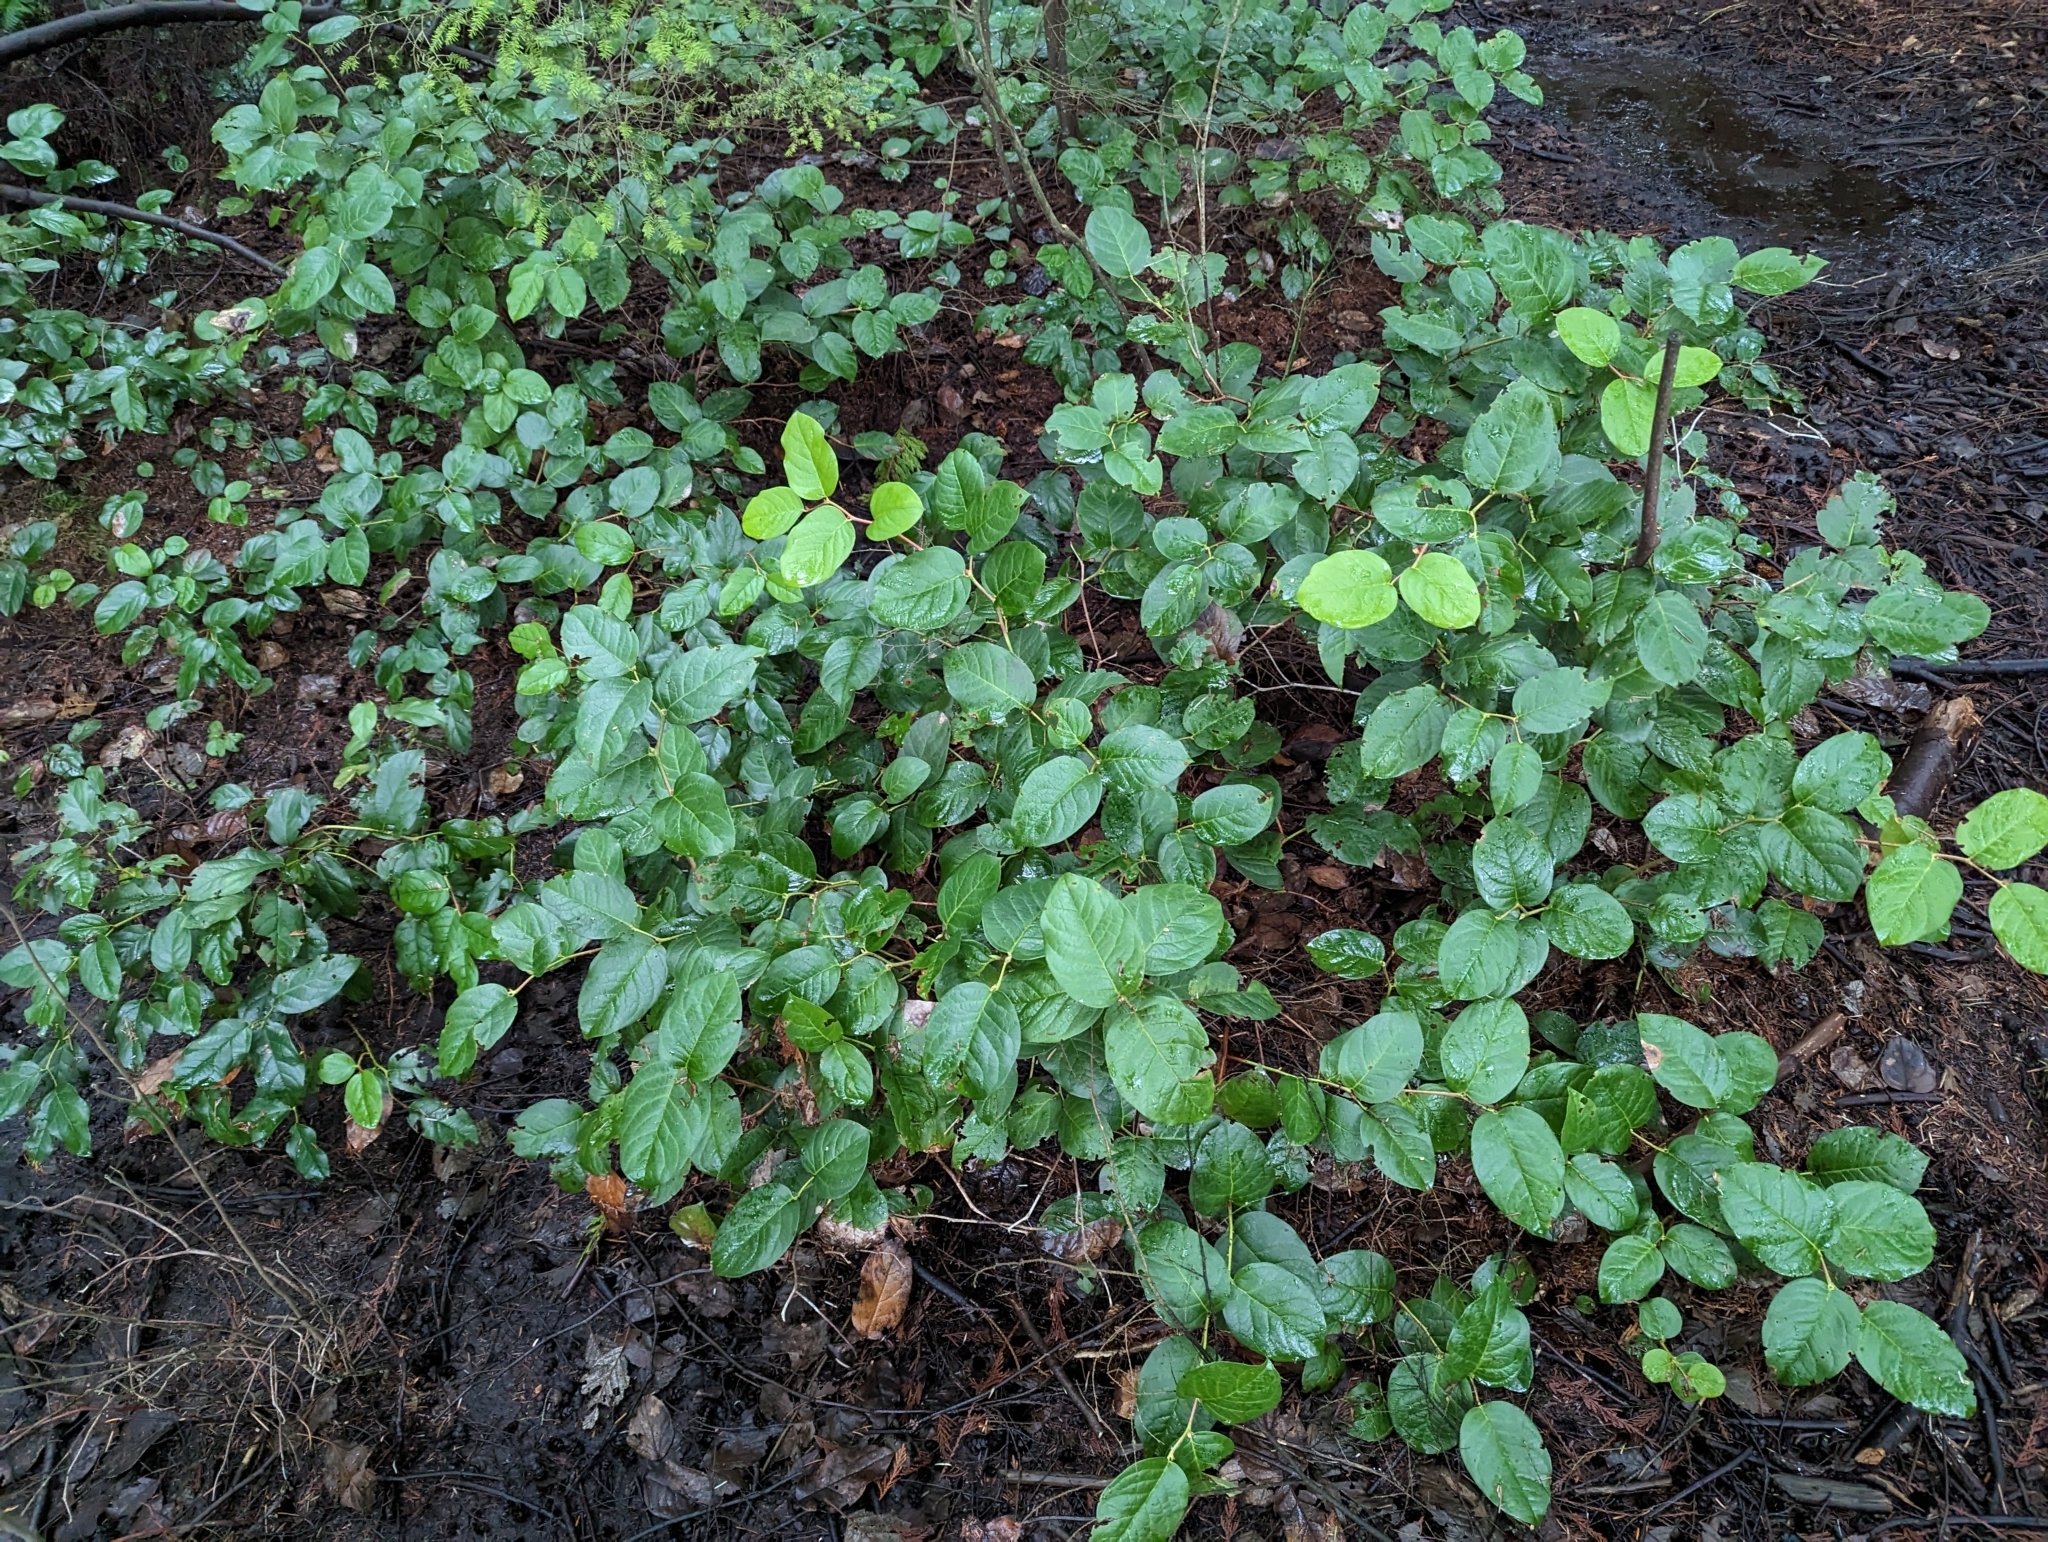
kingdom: Plantae
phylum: Tracheophyta
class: Magnoliopsida
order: Ericales
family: Ericaceae
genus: Gaultheria
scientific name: Gaultheria shallon
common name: Shallon
